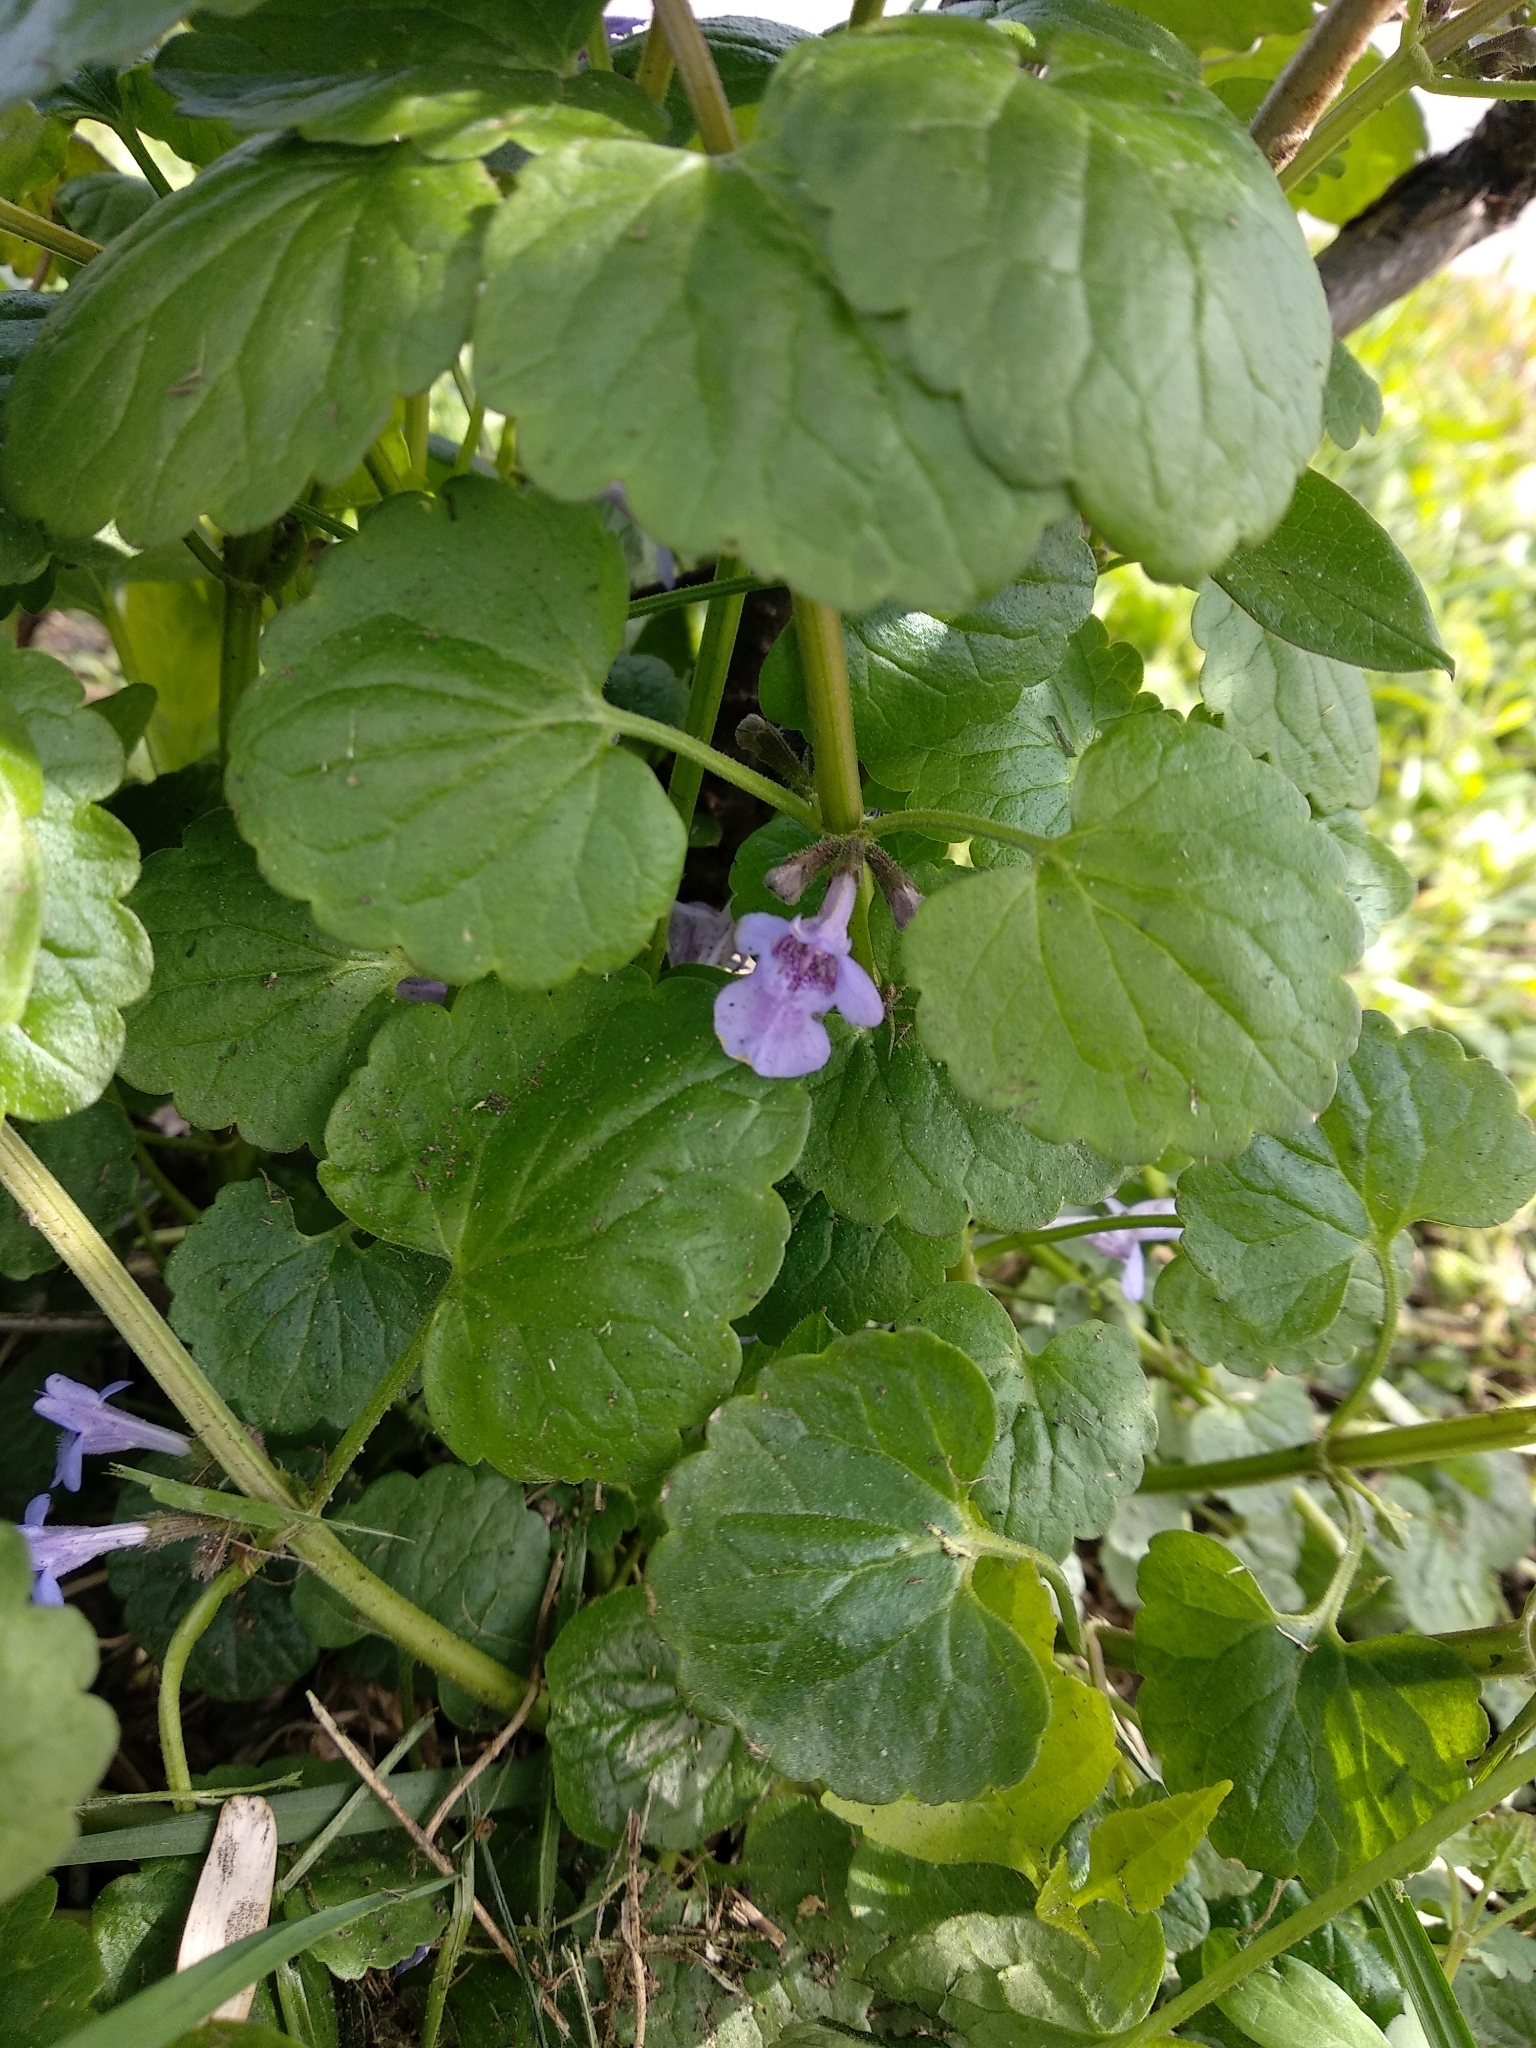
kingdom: Plantae
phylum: Tracheophyta
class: Magnoliopsida
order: Lamiales
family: Lamiaceae
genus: Glechoma
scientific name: Glechoma hederacea
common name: Ground ivy
